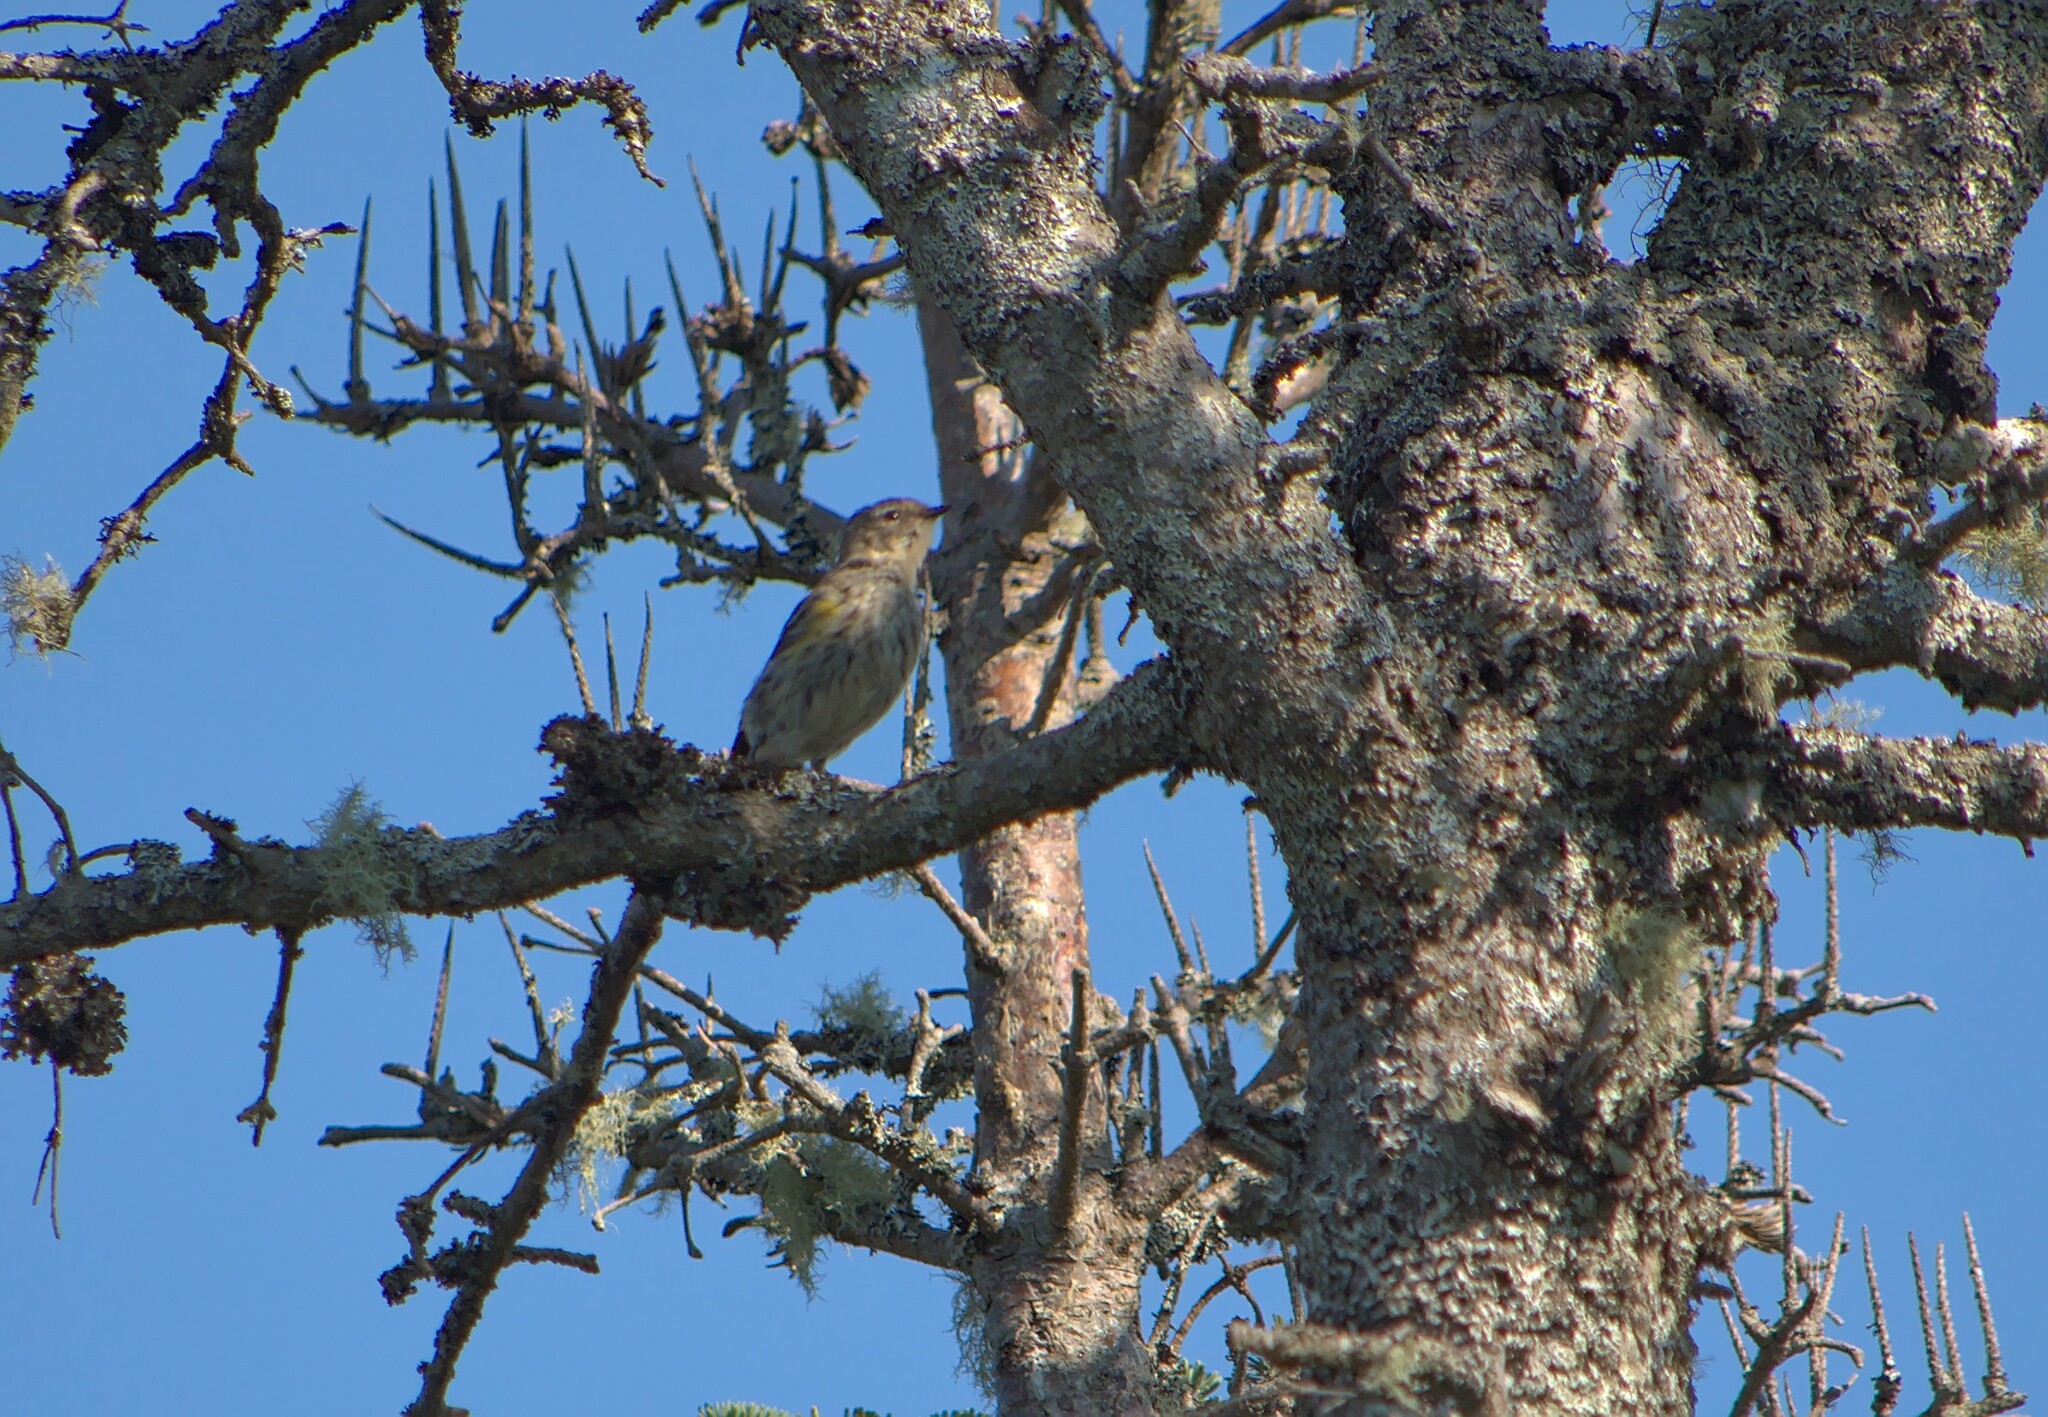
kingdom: Animalia
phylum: Chordata
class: Aves
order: Passeriformes
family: Parulidae
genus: Setophaga
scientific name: Setophaga coronata
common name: Myrtle warbler
